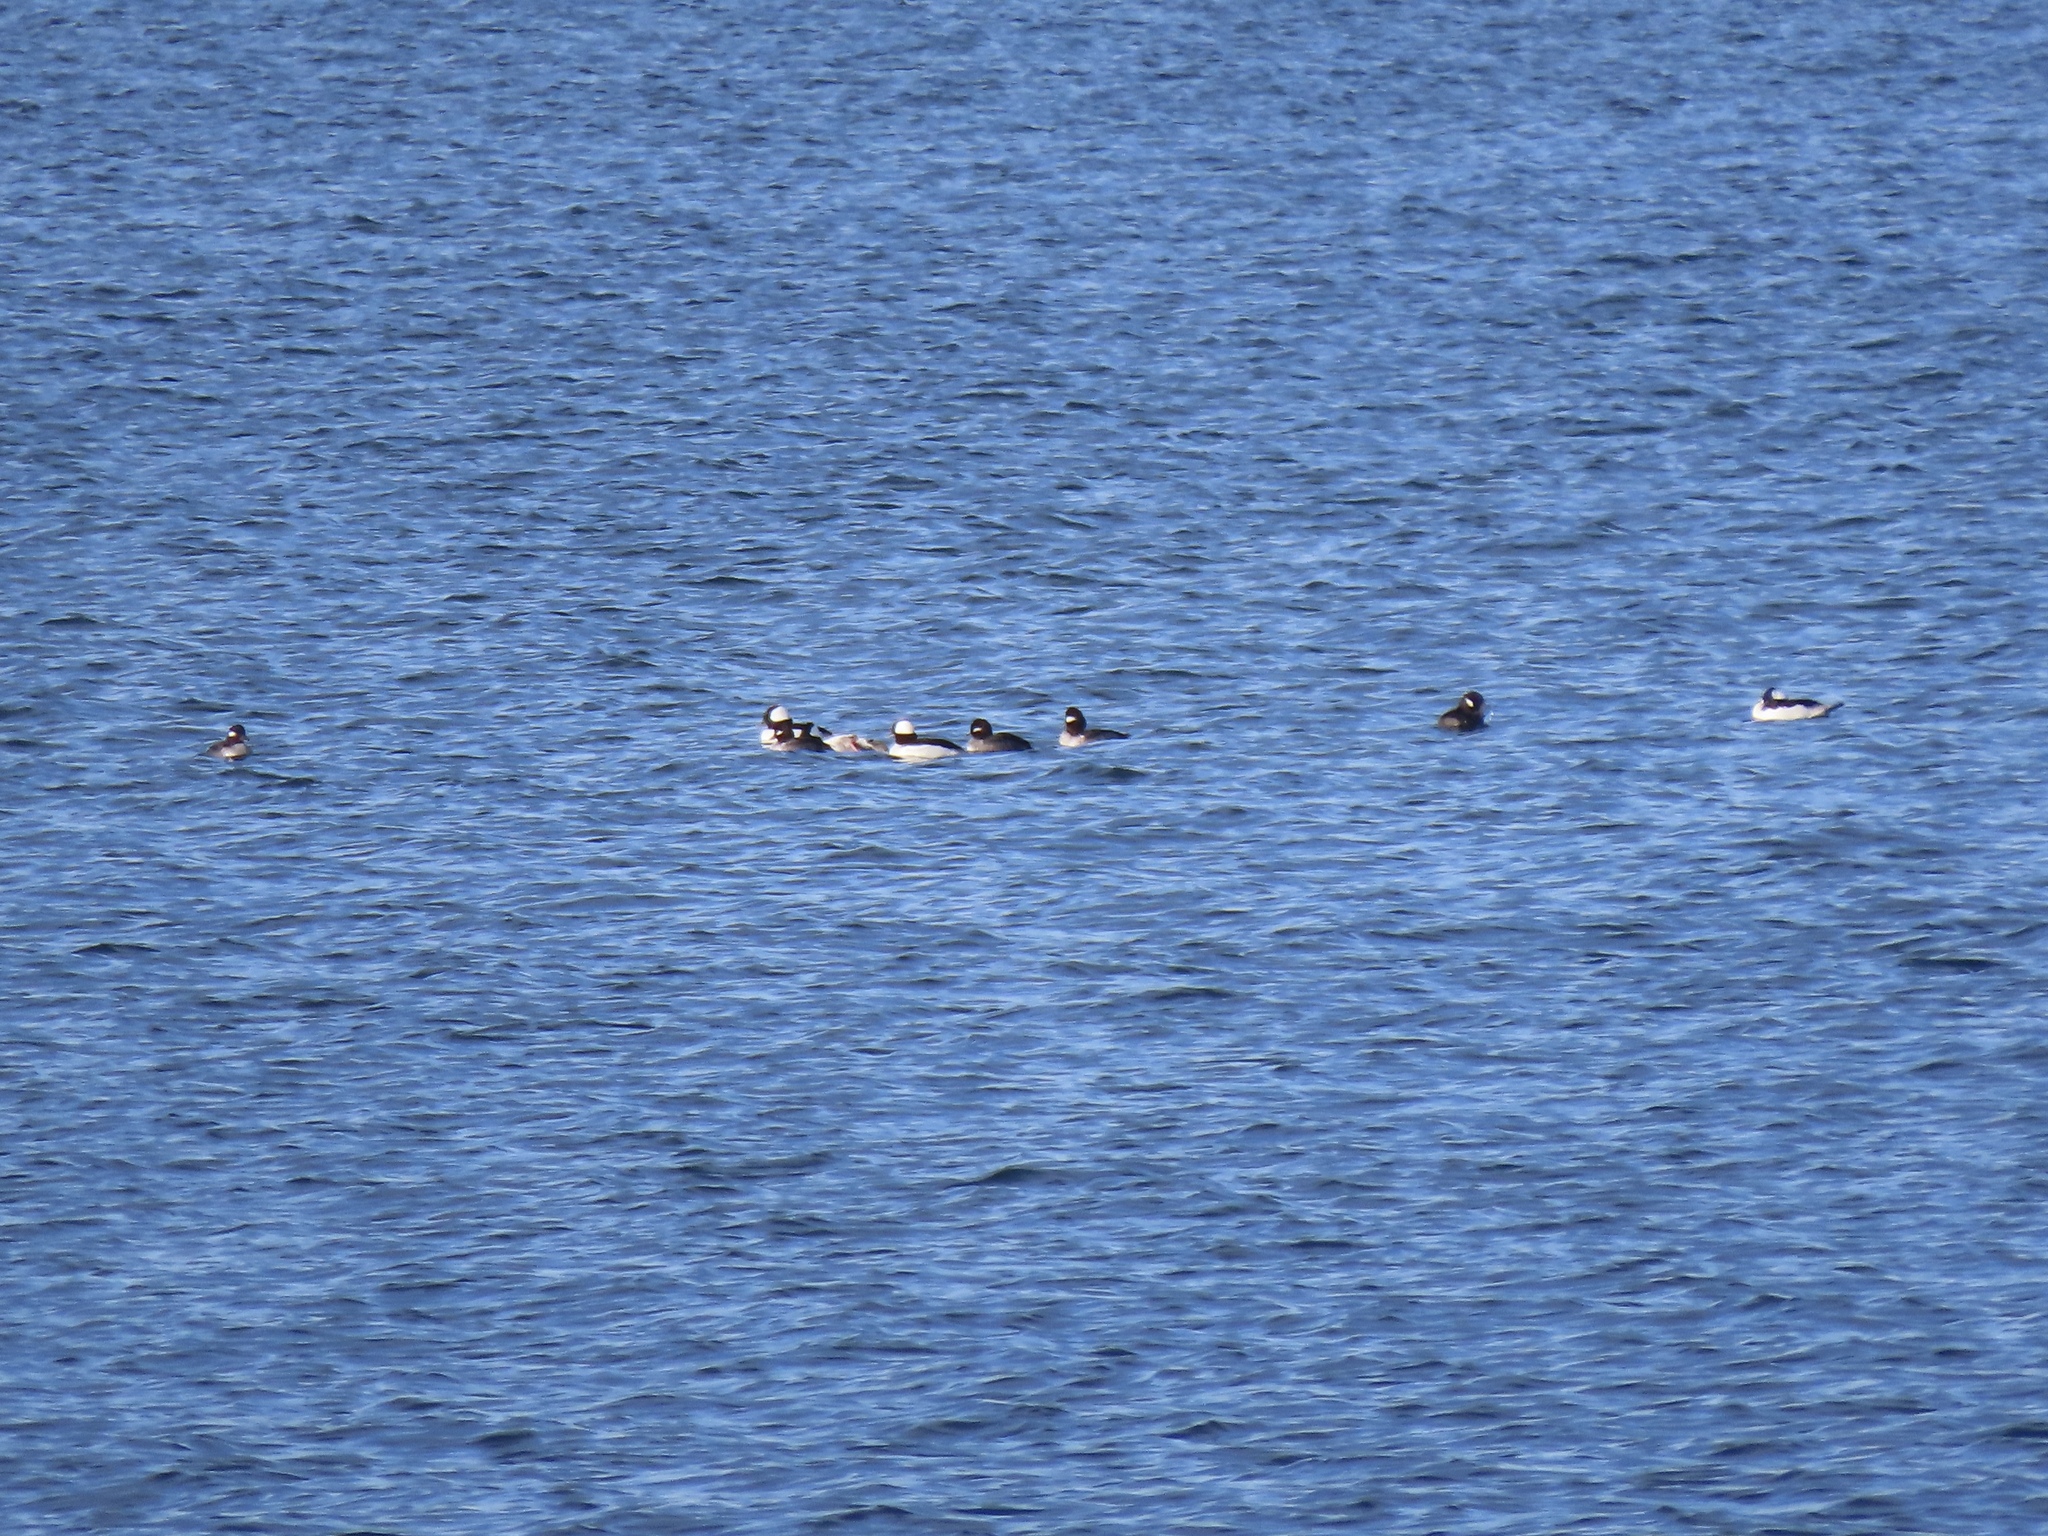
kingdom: Animalia
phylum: Chordata
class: Aves
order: Anseriformes
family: Anatidae
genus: Bucephala
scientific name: Bucephala albeola
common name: Bufflehead
